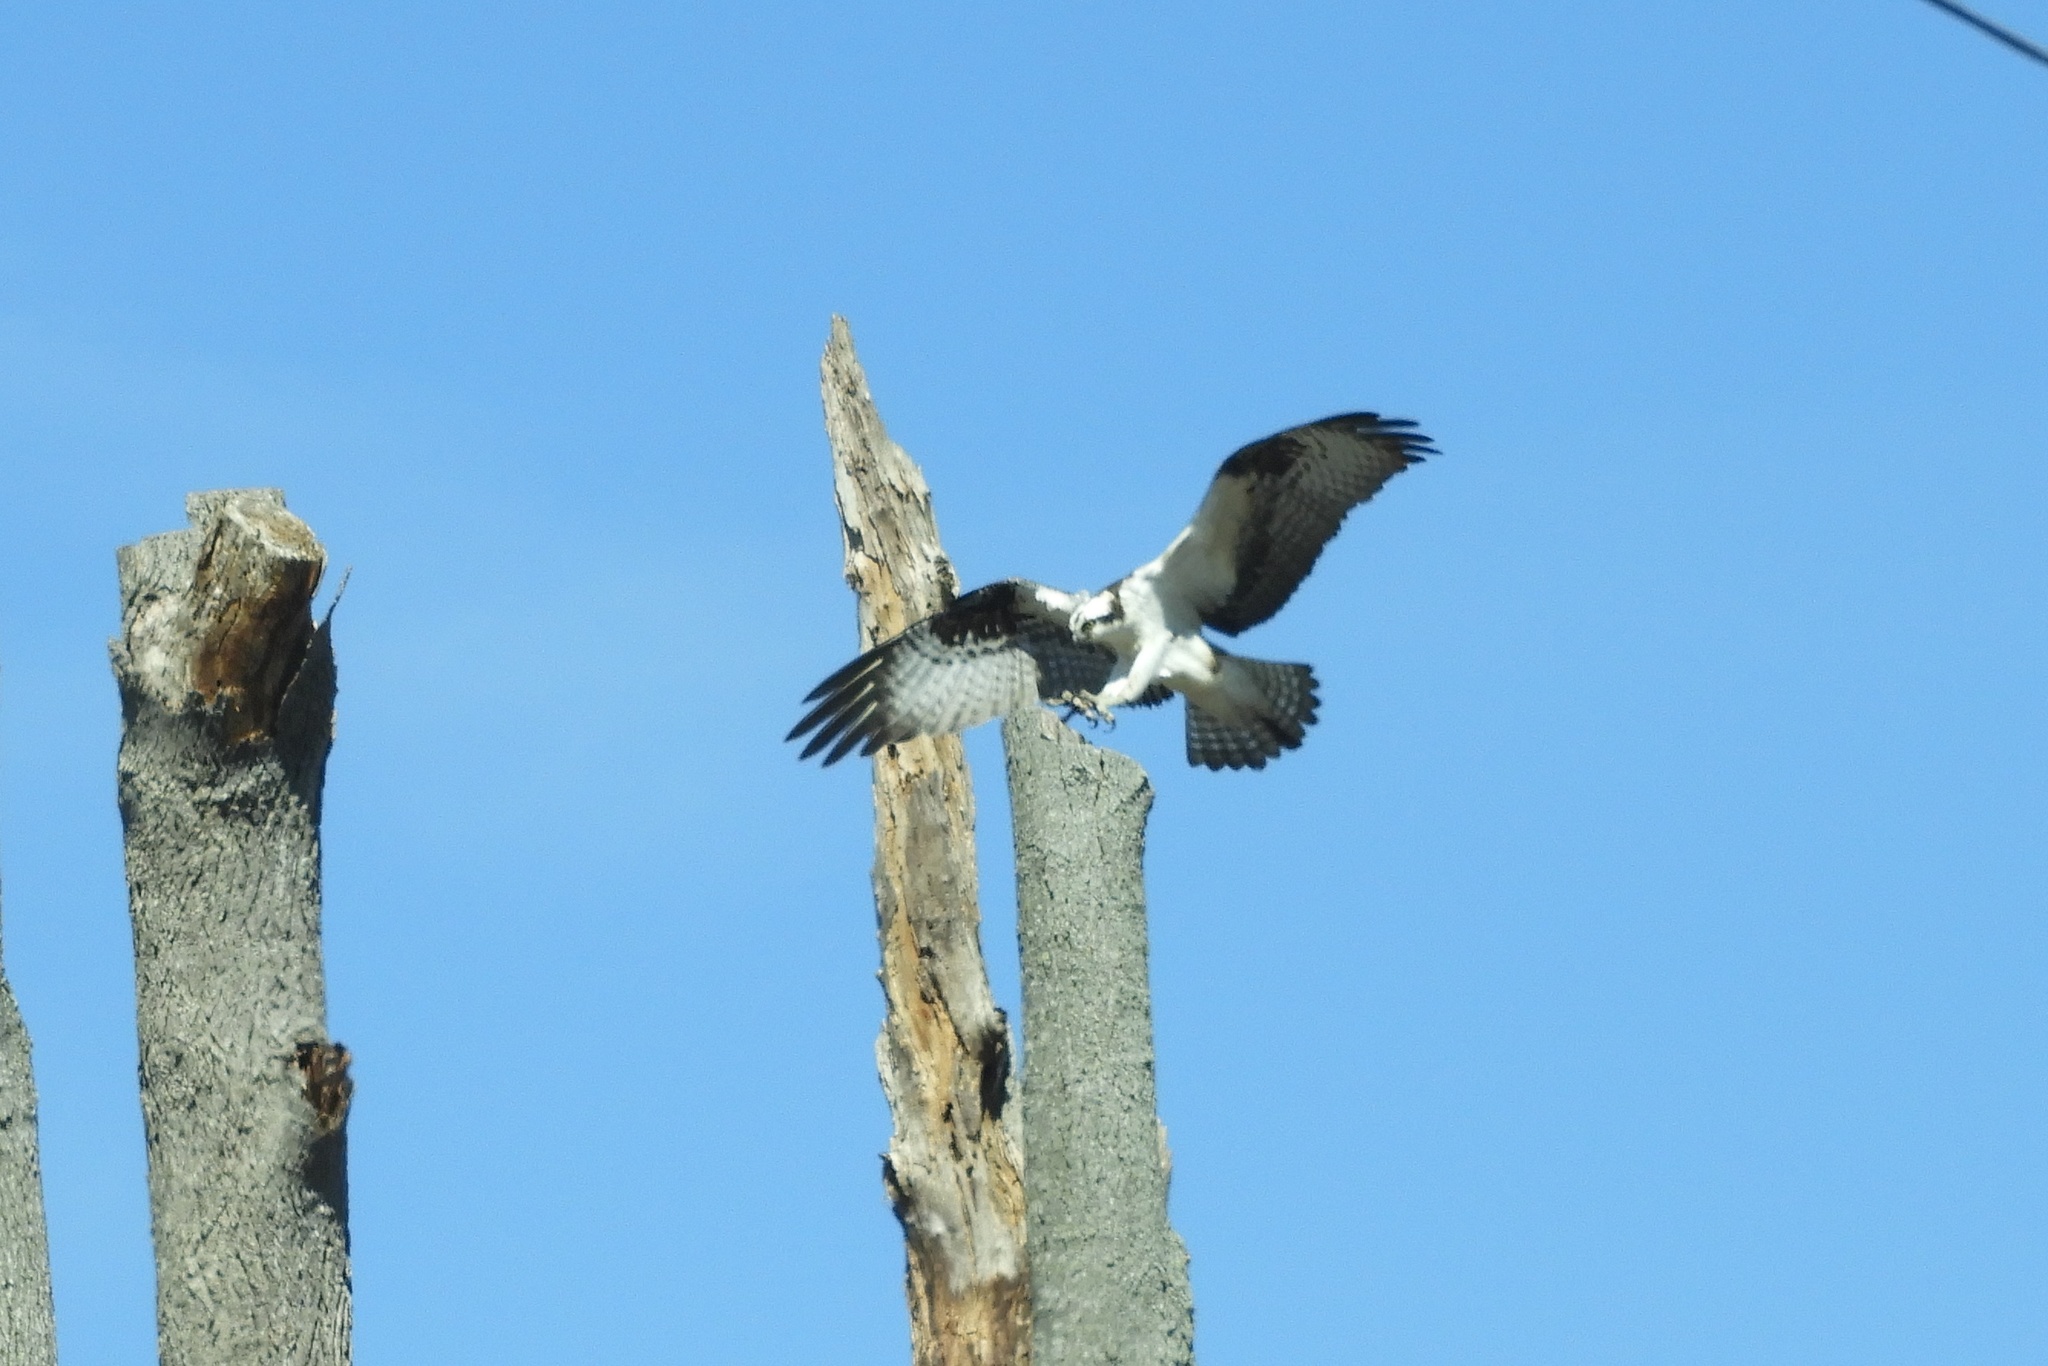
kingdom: Animalia
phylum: Chordata
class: Aves
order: Accipitriformes
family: Pandionidae
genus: Pandion
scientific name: Pandion haliaetus
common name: Osprey
